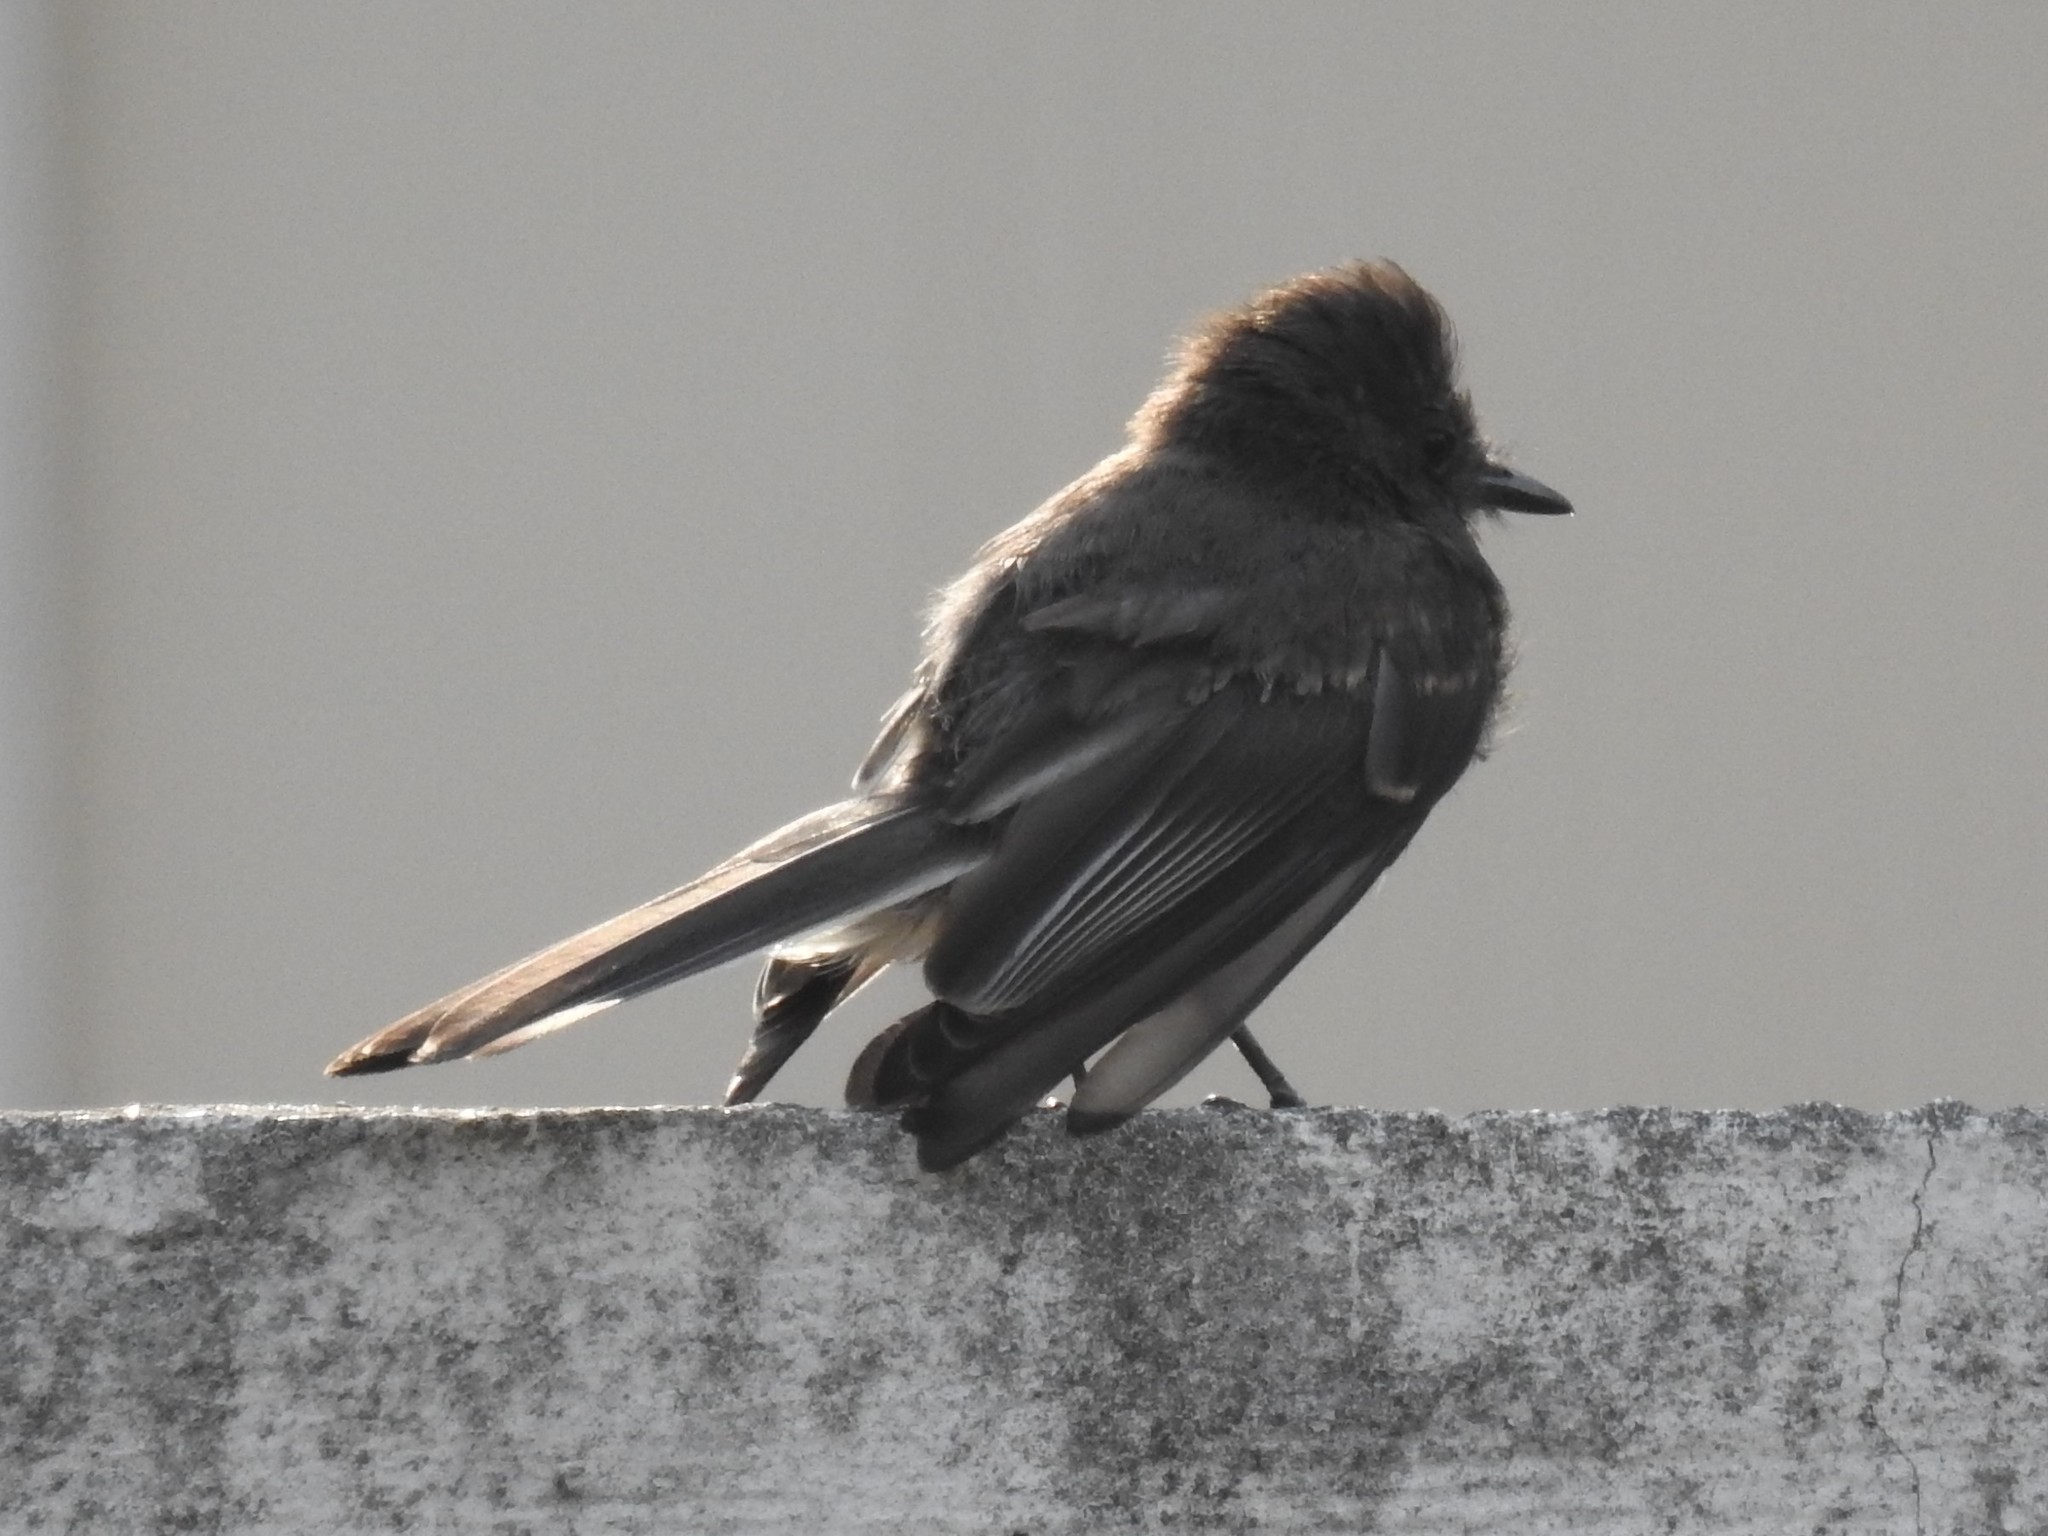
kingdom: Animalia
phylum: Chordata
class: Aves
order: Passeriformes
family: Tyrannidae
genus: Sayornis
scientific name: Sayornis nigricans
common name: Black phoebe
